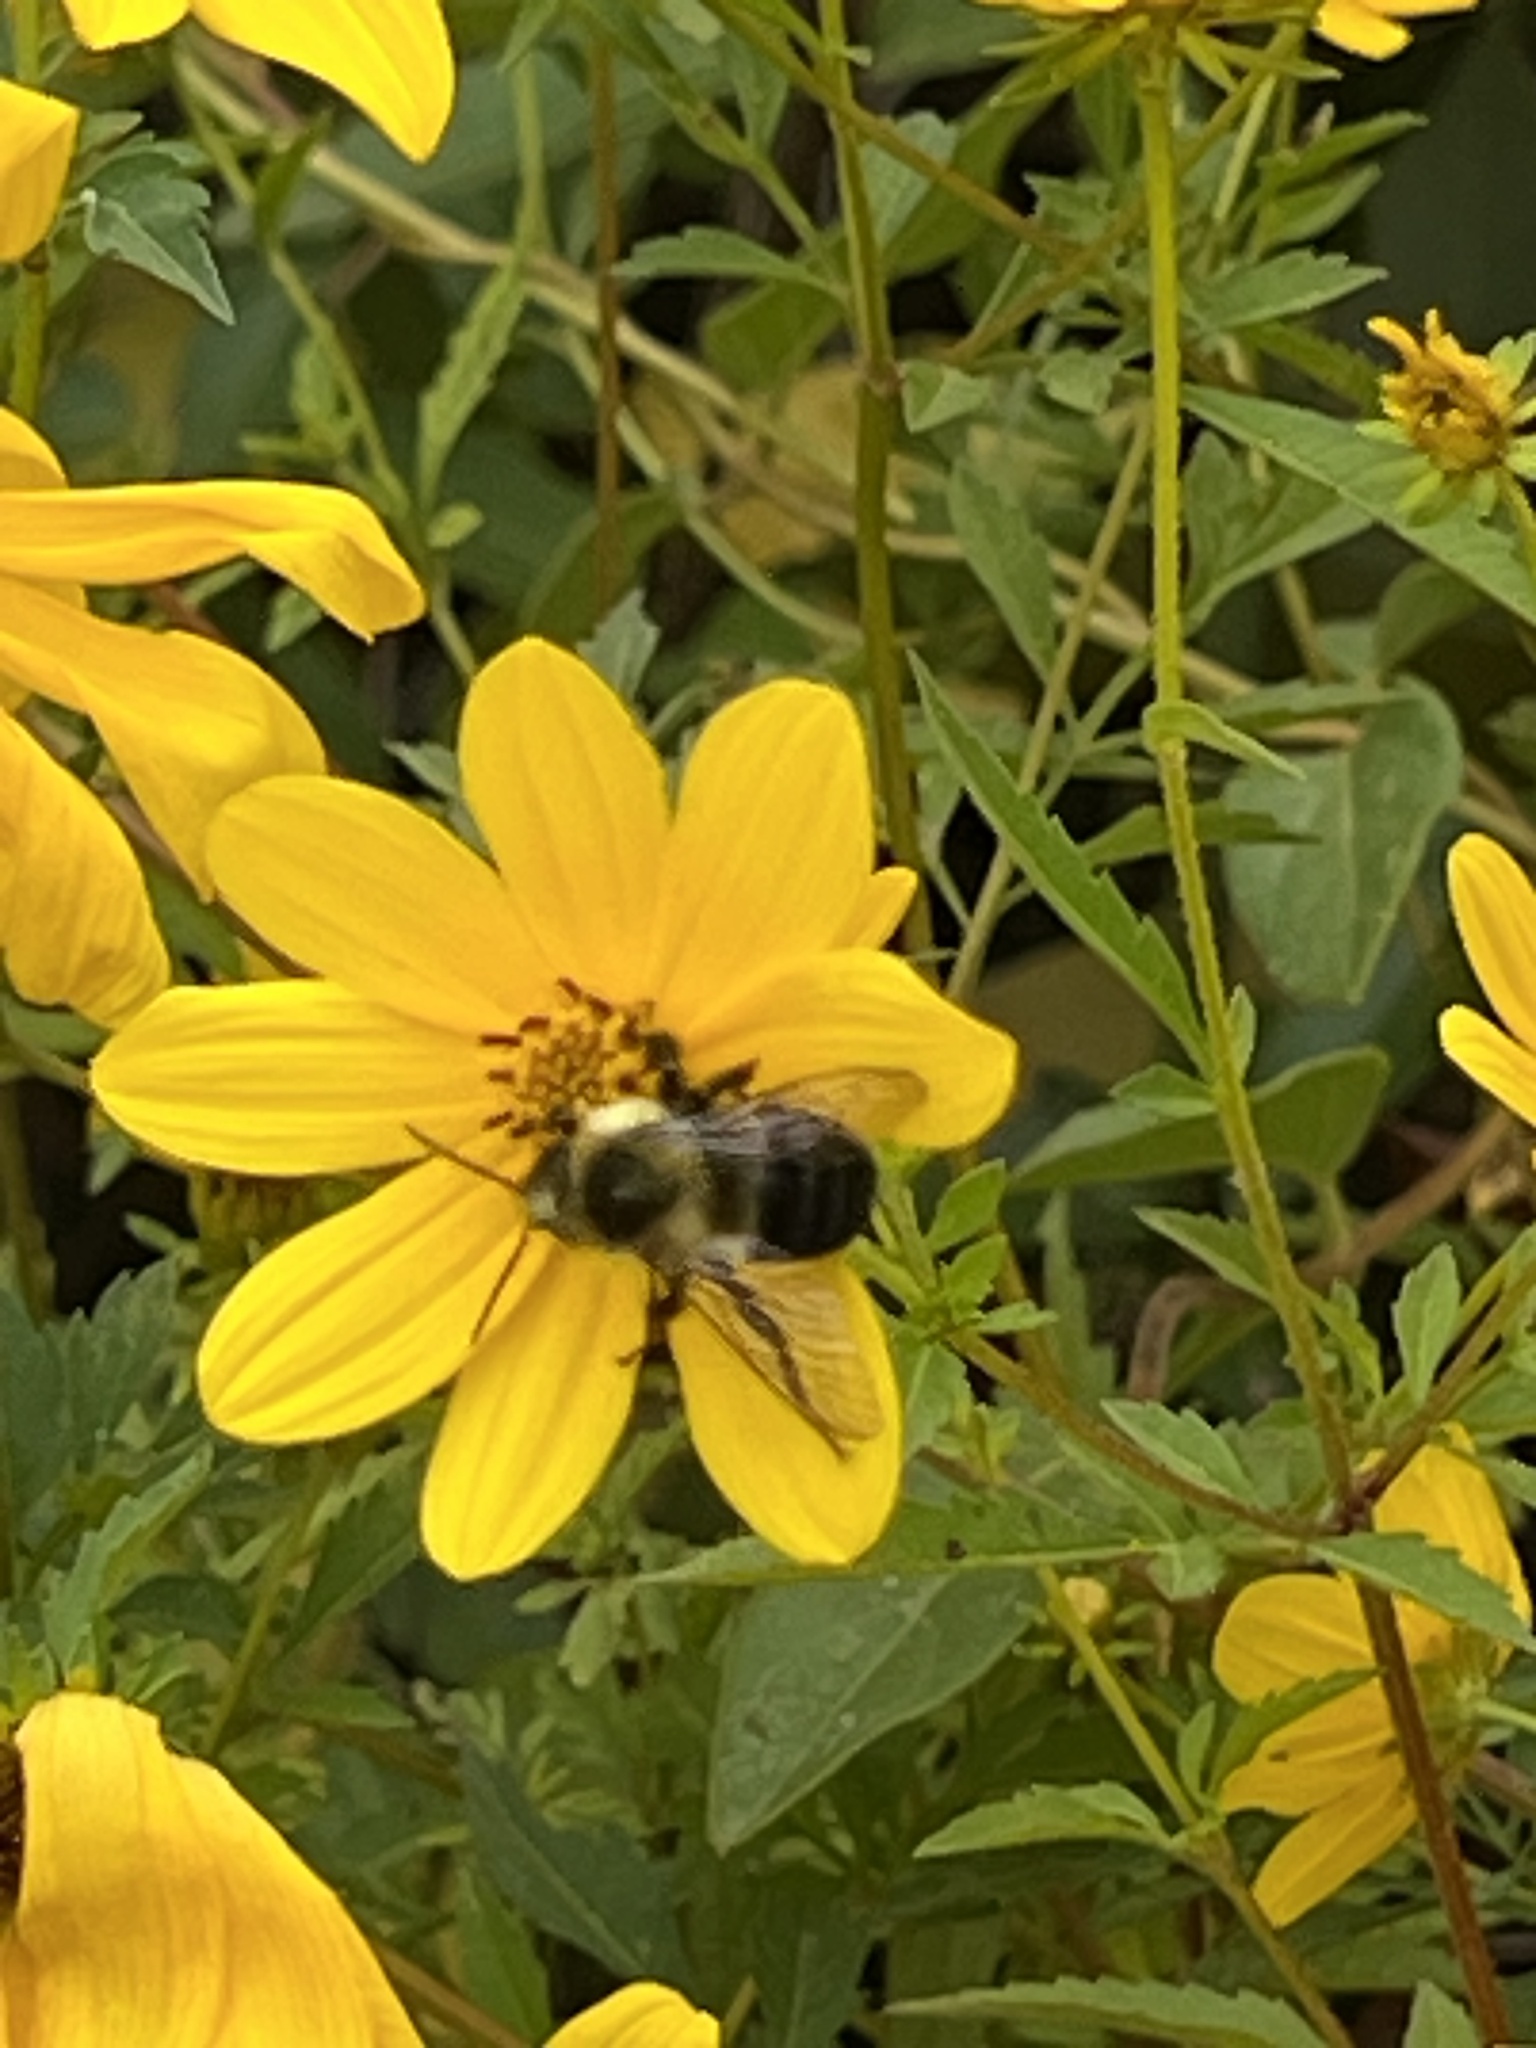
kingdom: Animalia
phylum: Arthropoda
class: Insecta
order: Hymenoptera
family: Apidae
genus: Bombus
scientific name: Bombus impatiens
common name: Common eastern bumble bee
